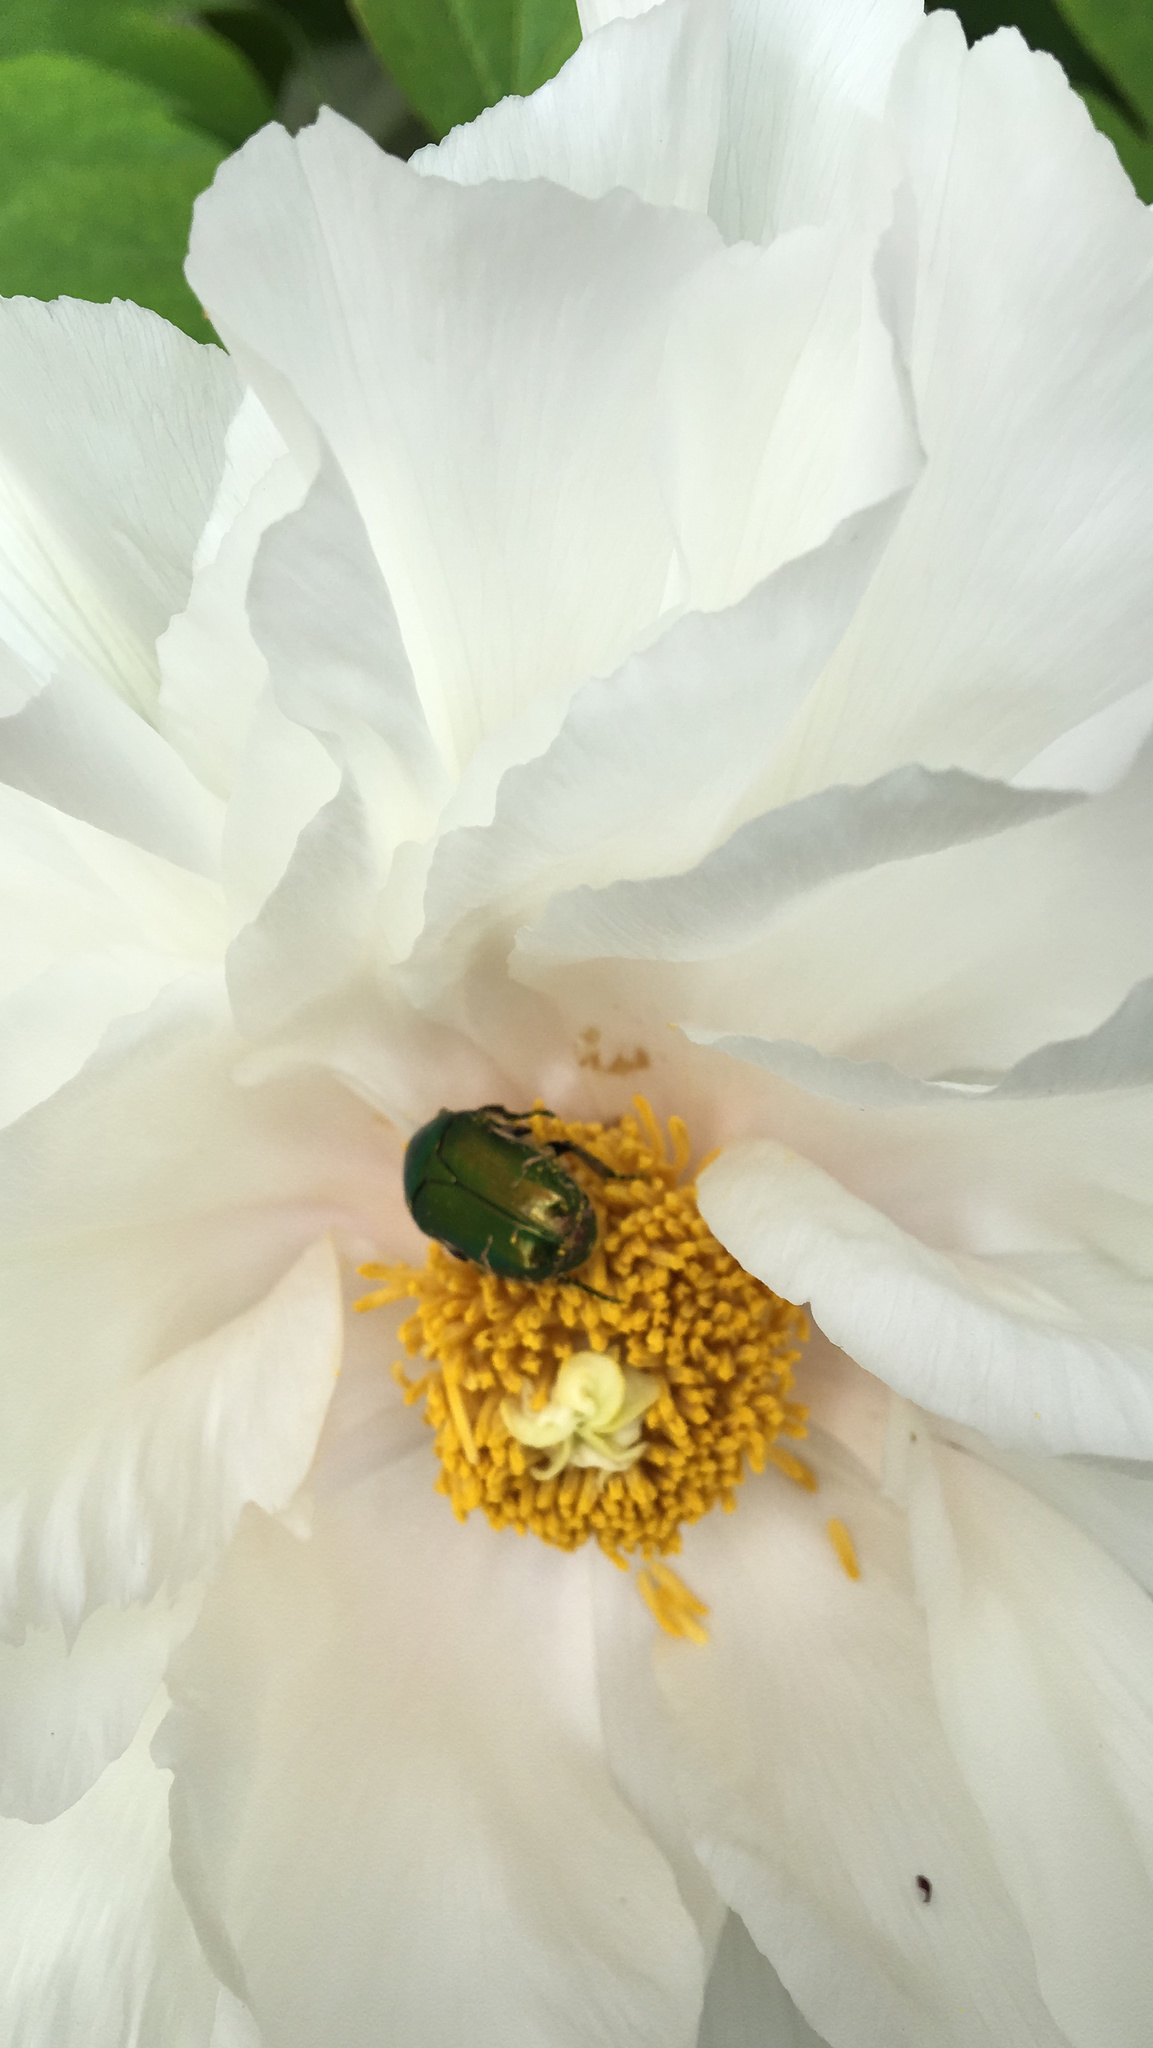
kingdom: Animalia
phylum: Arthropoda
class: Insecta
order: Coleoptera
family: Scarabaeidae
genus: Cetonia
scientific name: Cetonia aurata
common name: Rose chafer
